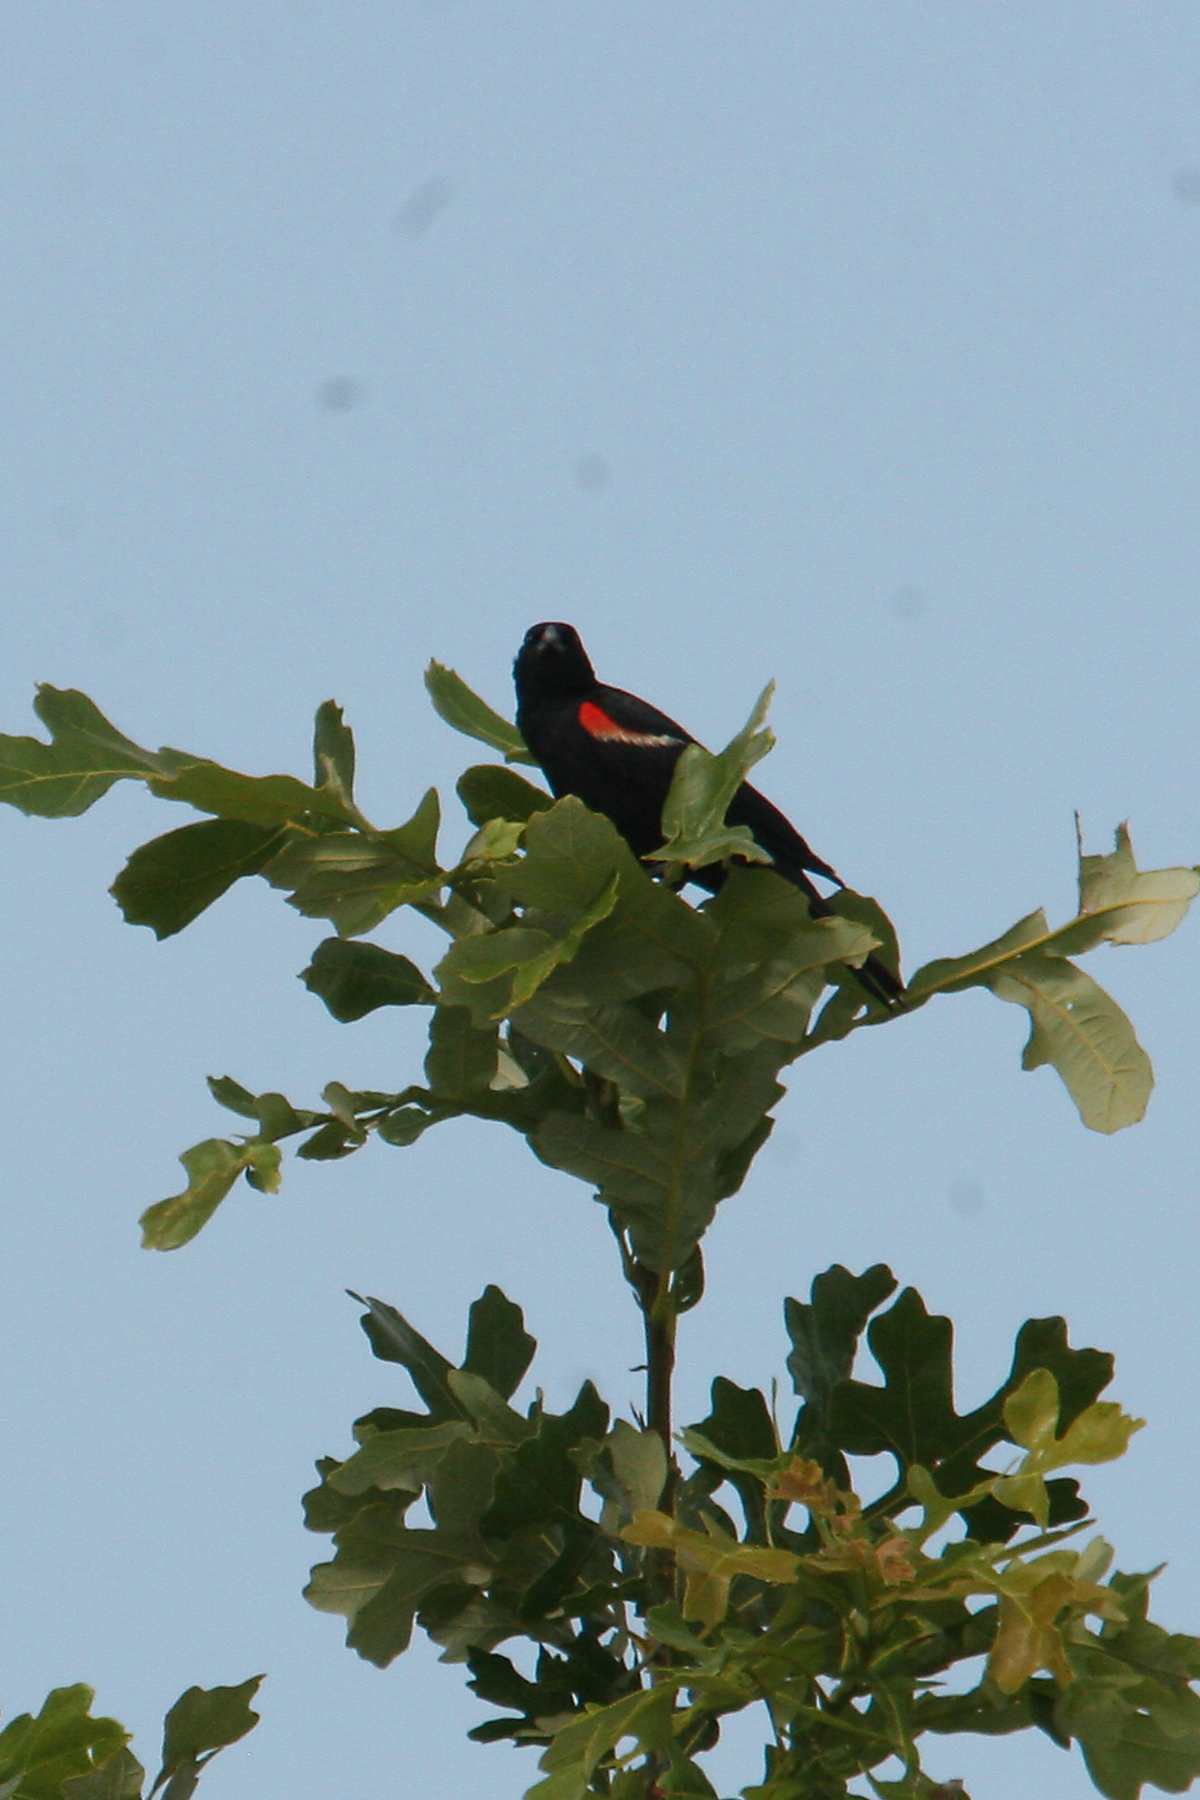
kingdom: Animalia
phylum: Chordata
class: Aves
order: Passeriformes
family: Icteridae
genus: Agelaius
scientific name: Agelaius phoeniceus
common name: Red-winged blackbird
